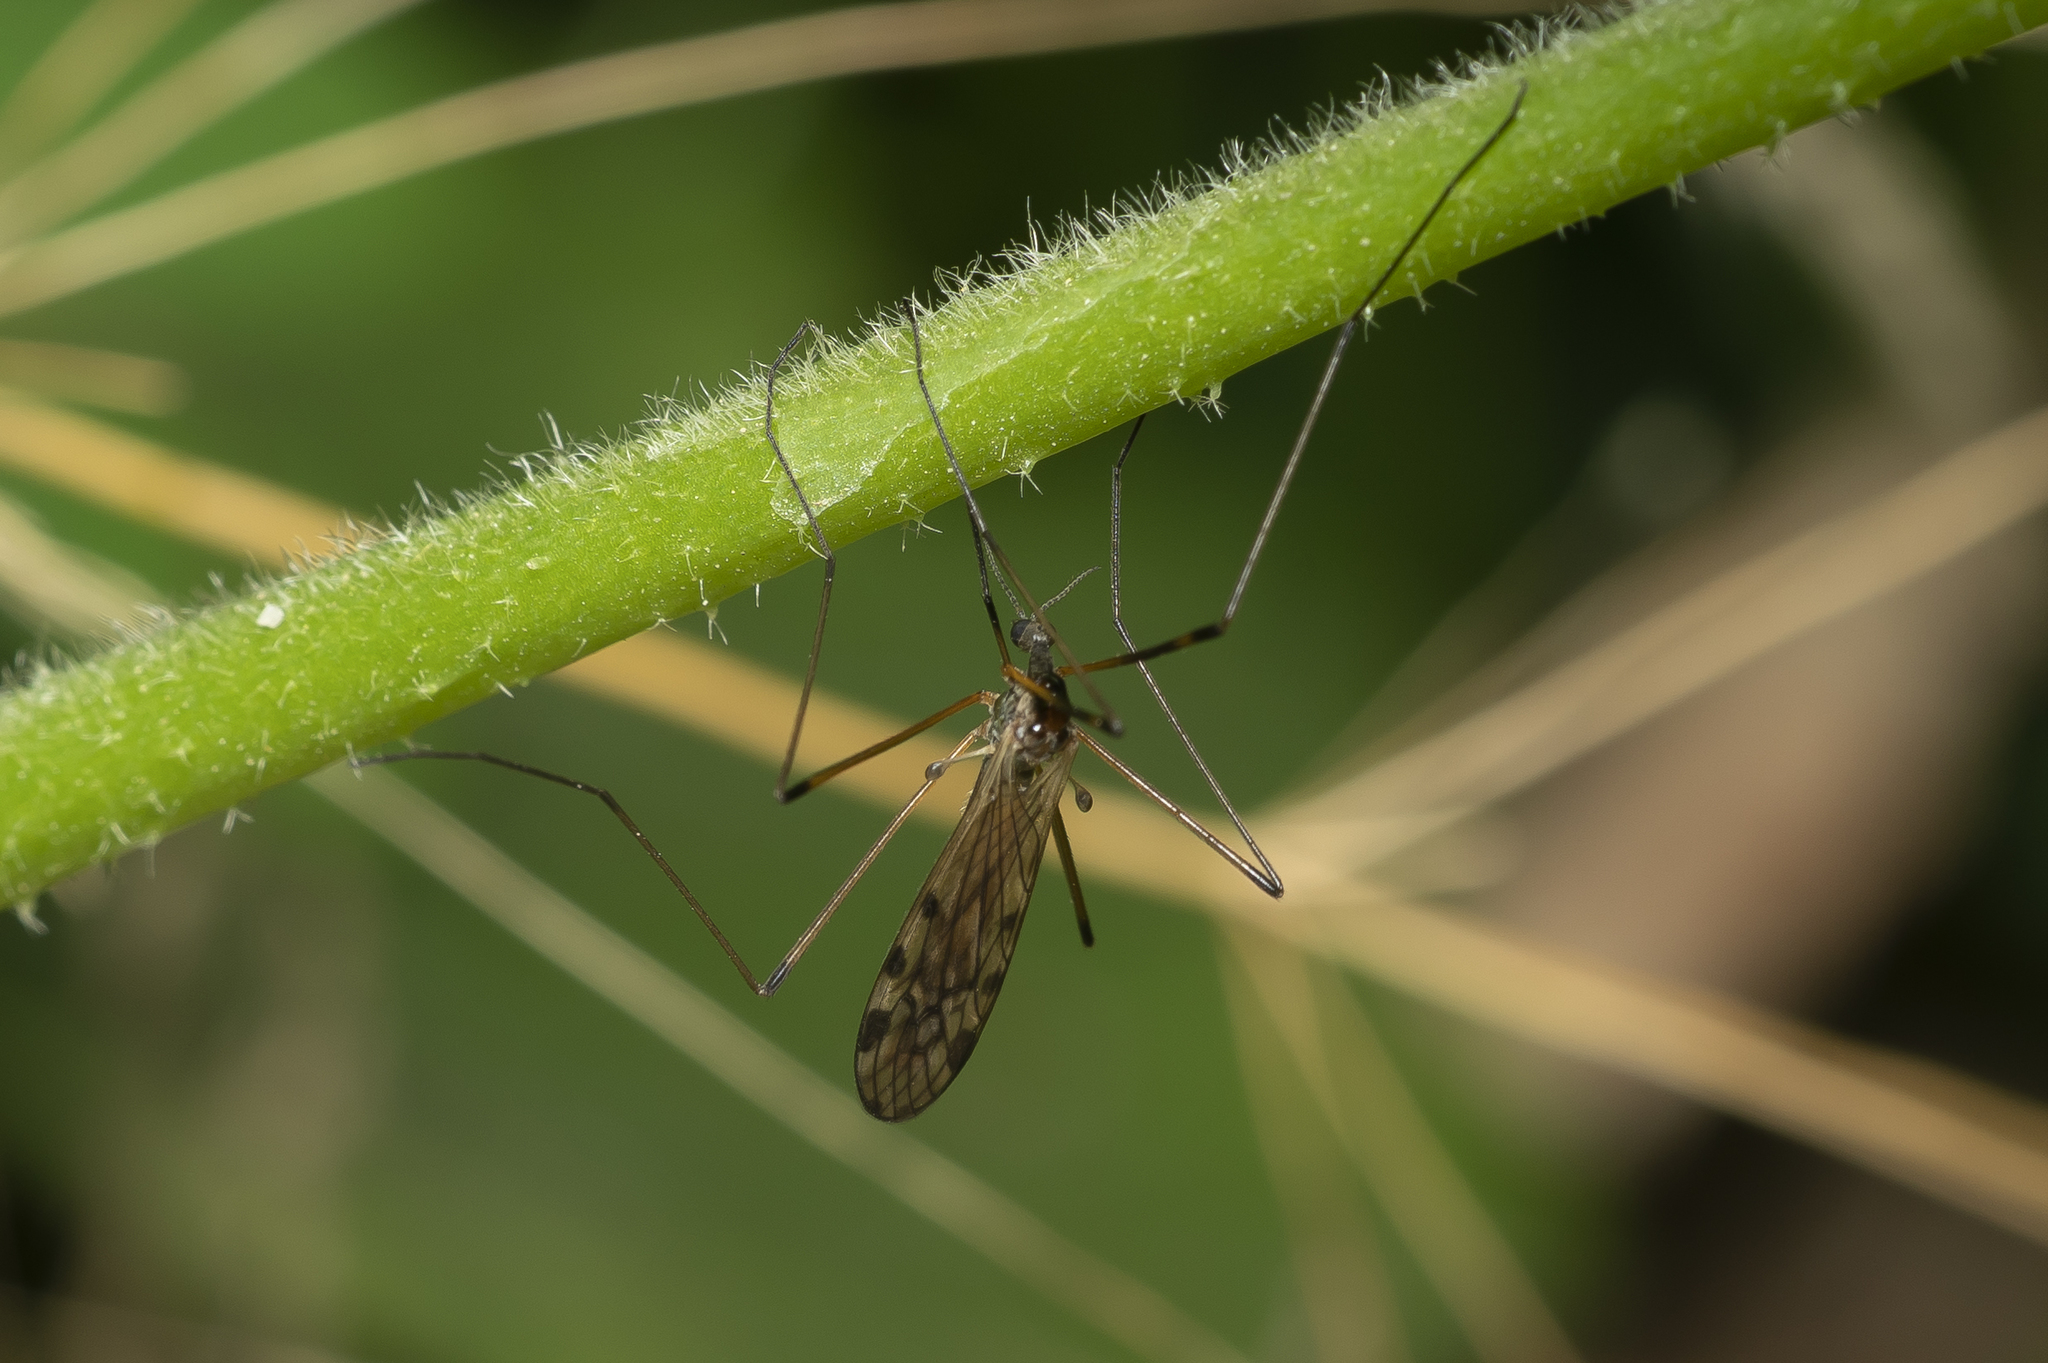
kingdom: Animalia
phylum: Arthropoda
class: Insecta
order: Diptera
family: Limoniidae
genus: Limonia
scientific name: Limonia nussbaumi
